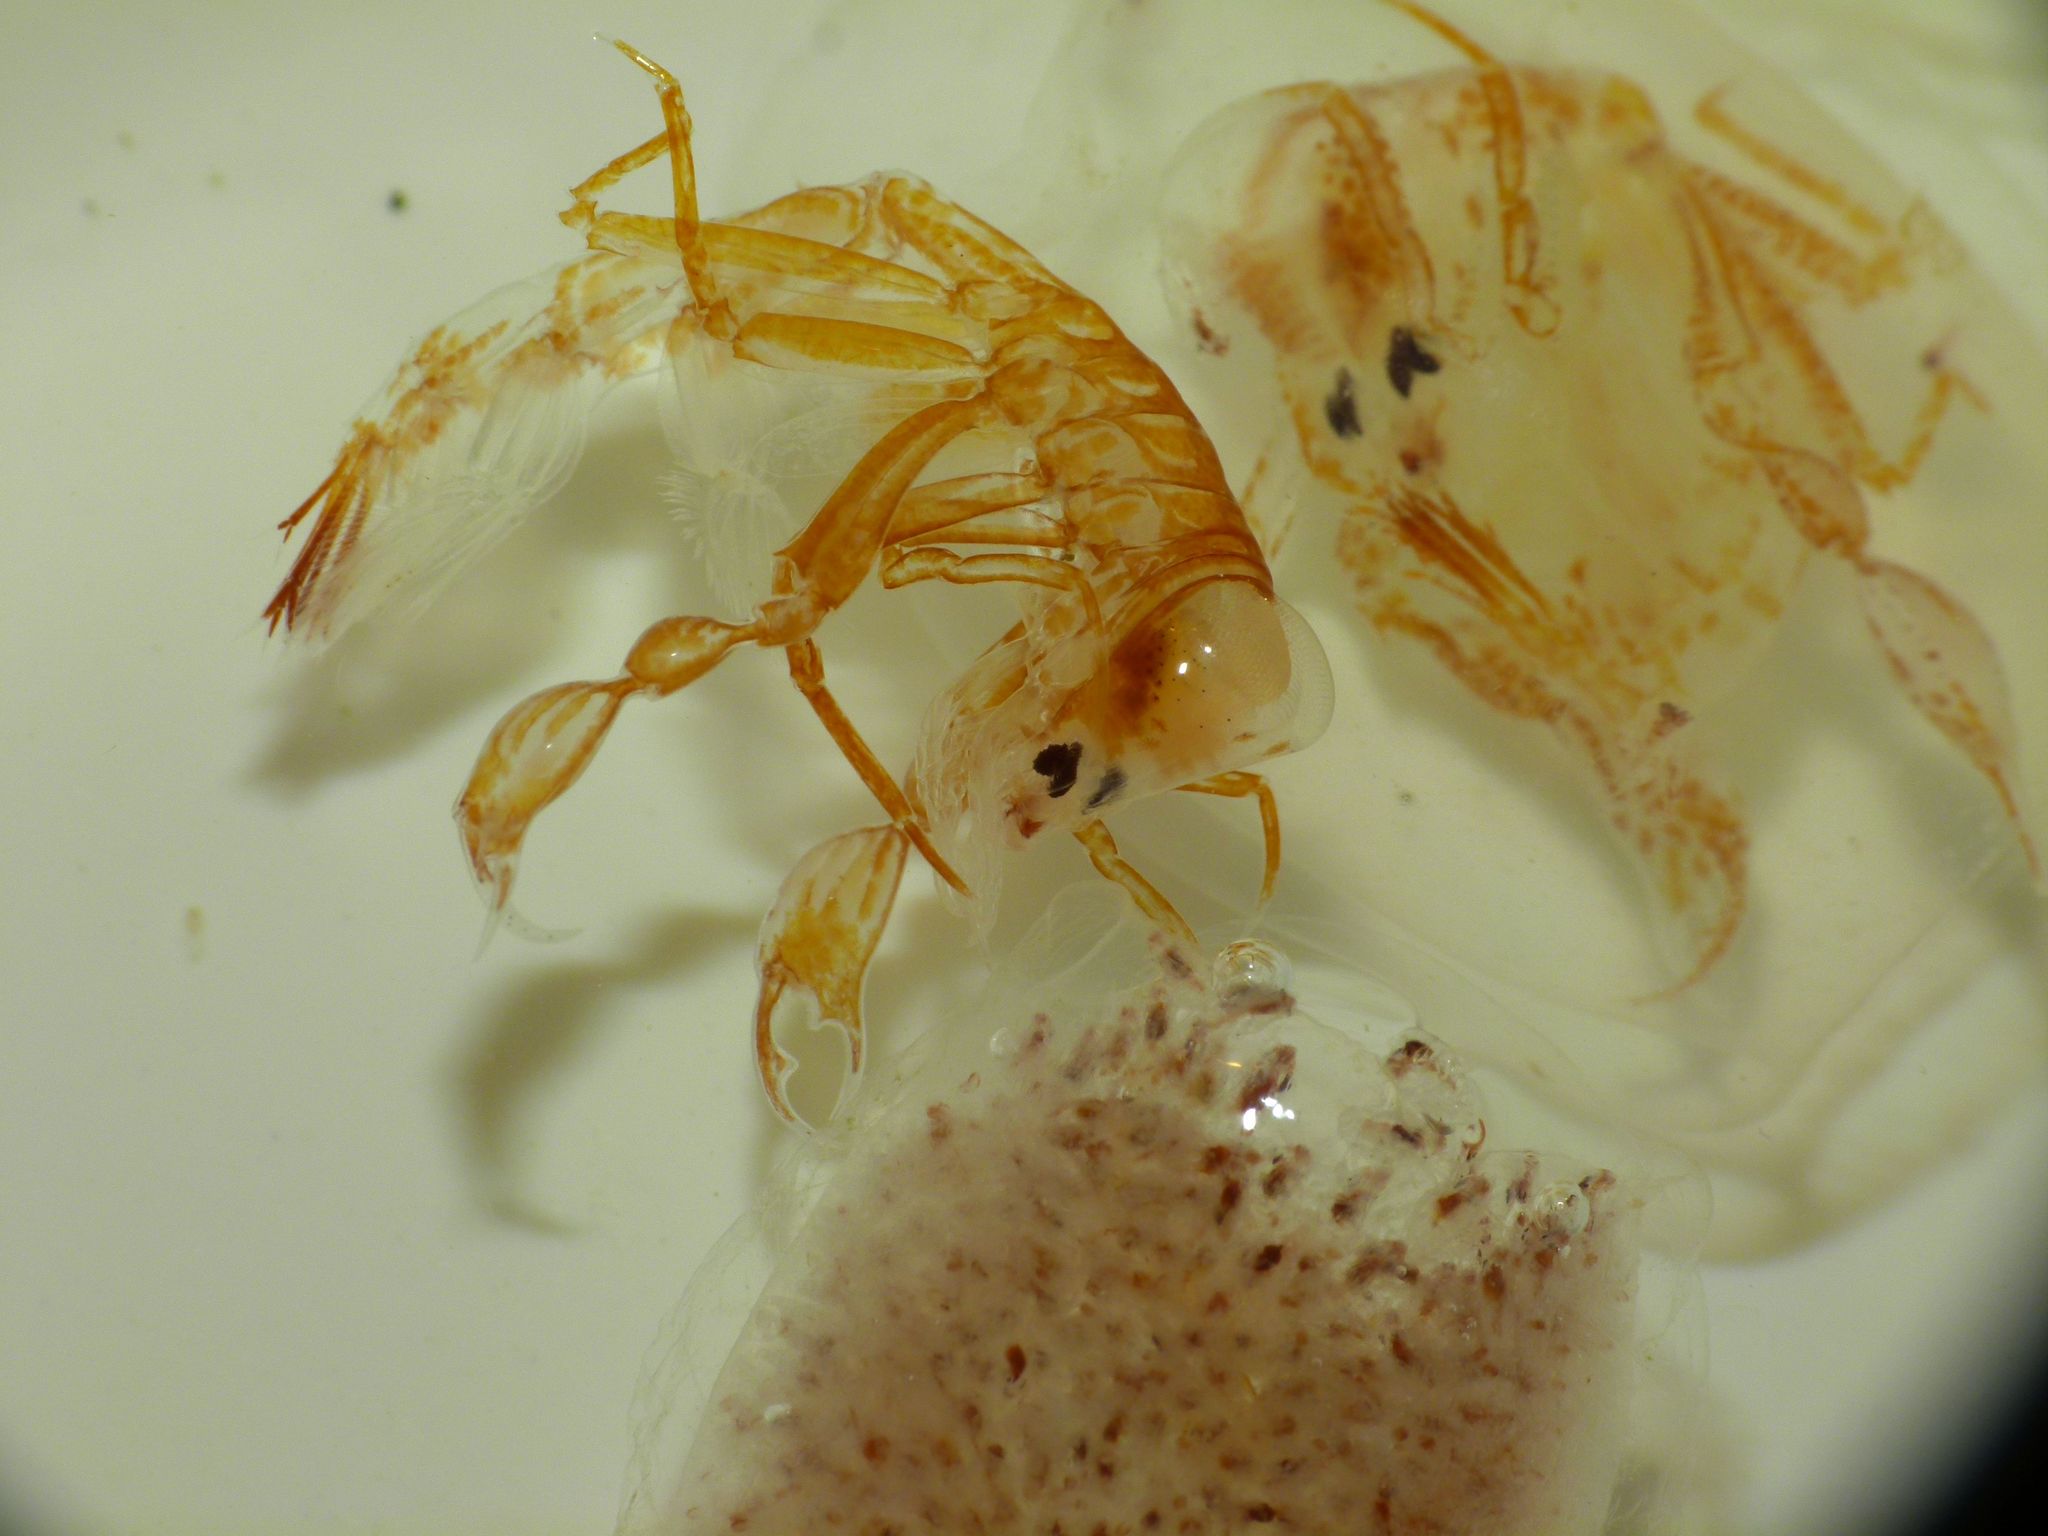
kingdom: Animalia
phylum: Arthropoda
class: Malacostraca
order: Amphipoda
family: Phronimidae
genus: Phronima
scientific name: Phronima sedentaria
